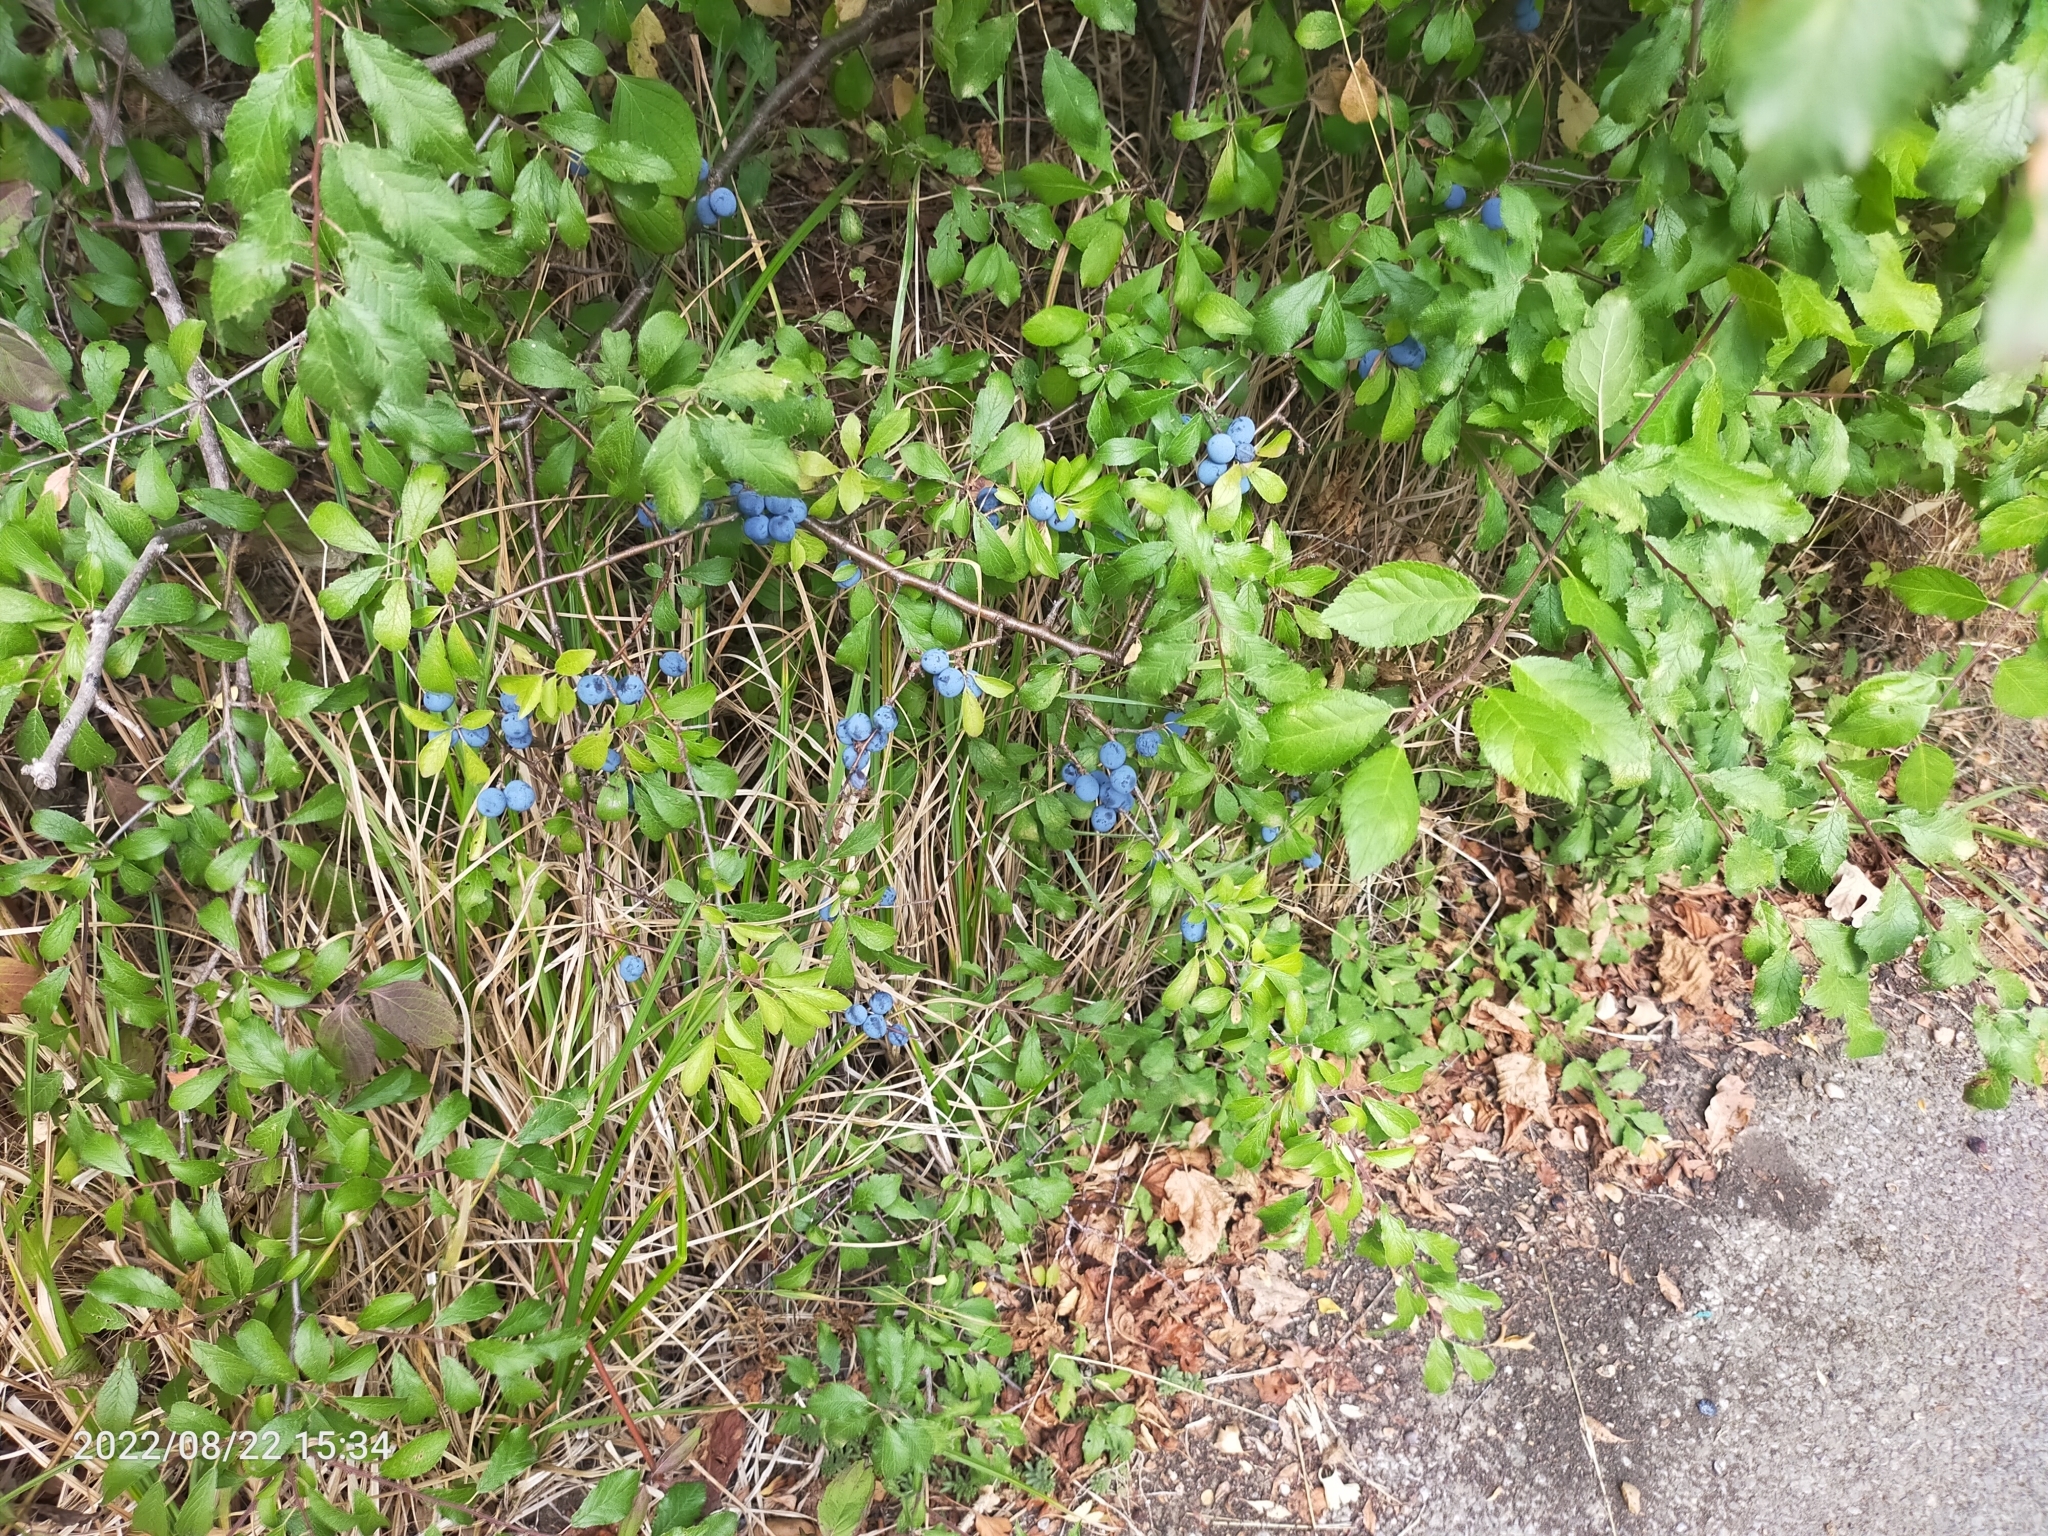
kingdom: Plantae
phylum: Tracheophyta
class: Magnoliopsida
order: Rosales
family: Rosaceae
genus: Prunus
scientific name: Prunus spinosa
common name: Blackthorn
